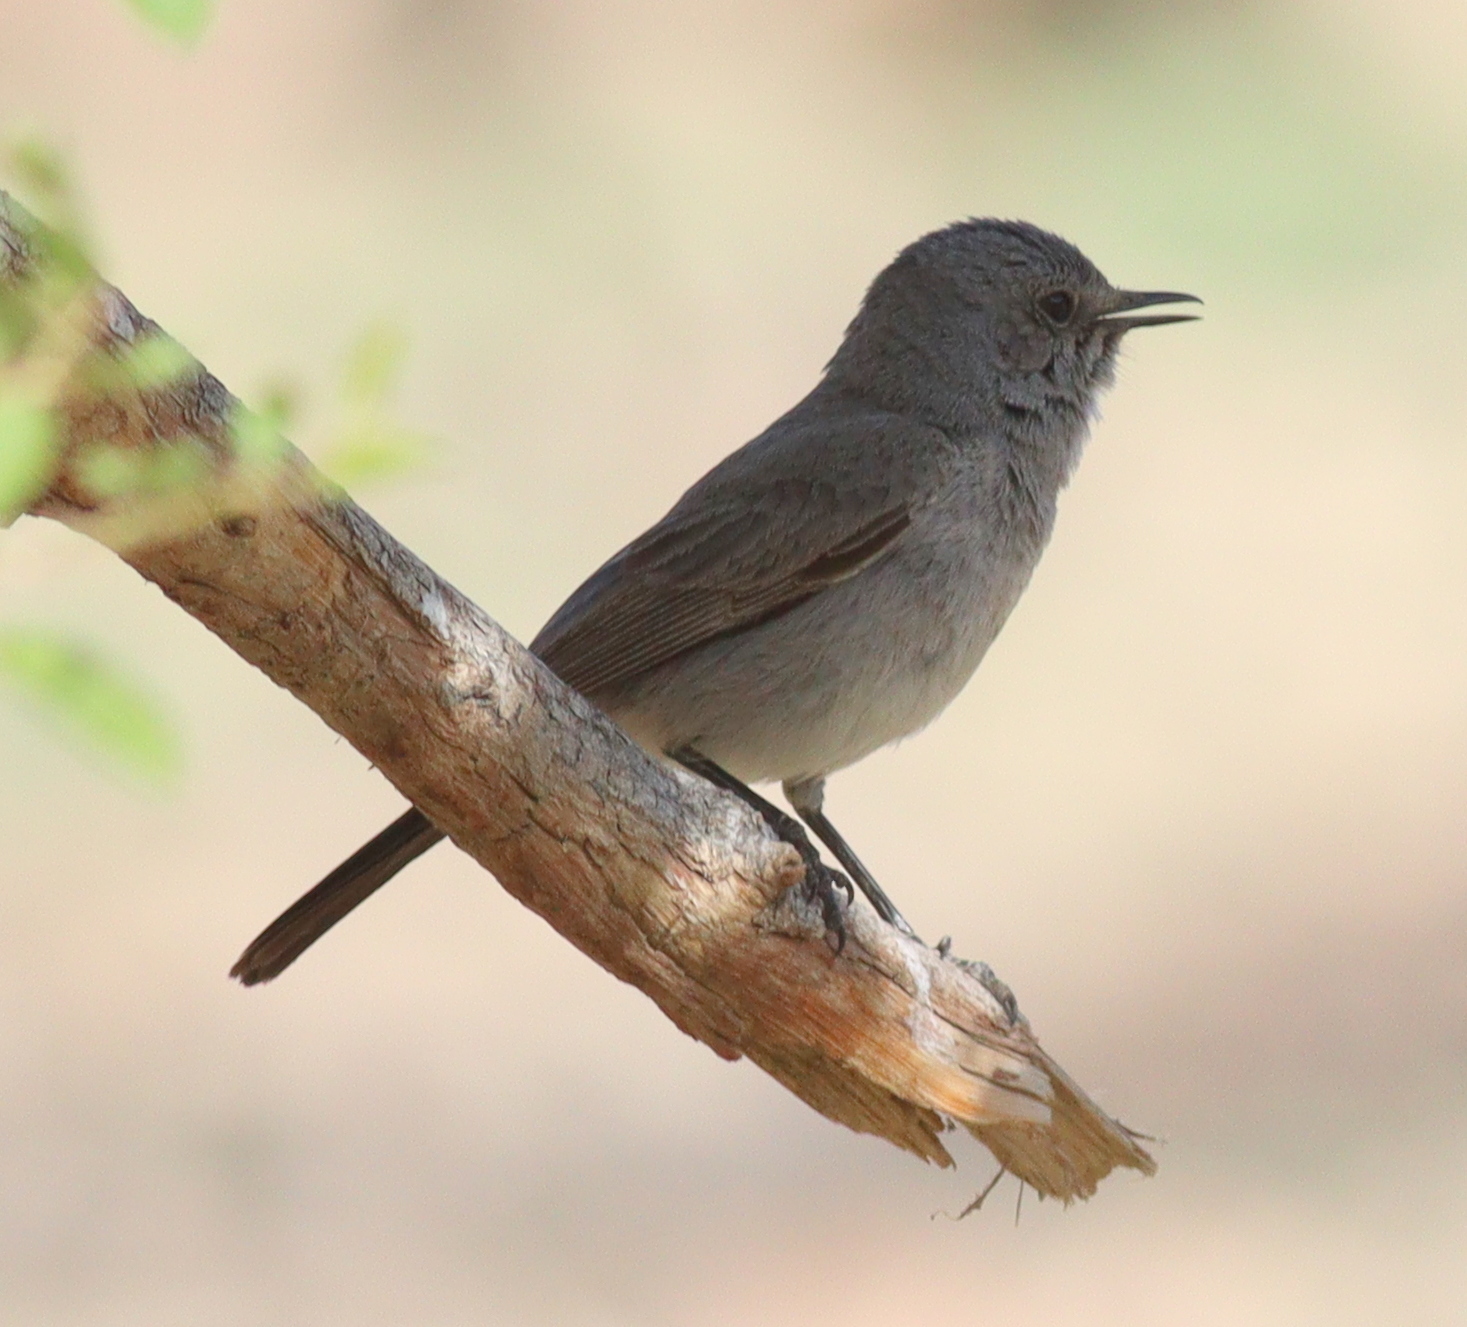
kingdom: Animalia
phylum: Chordata
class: Aves
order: Passeriformes
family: Muscicapidae
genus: Oenanthe
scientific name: Oenanthe melanura
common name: Blackstart
